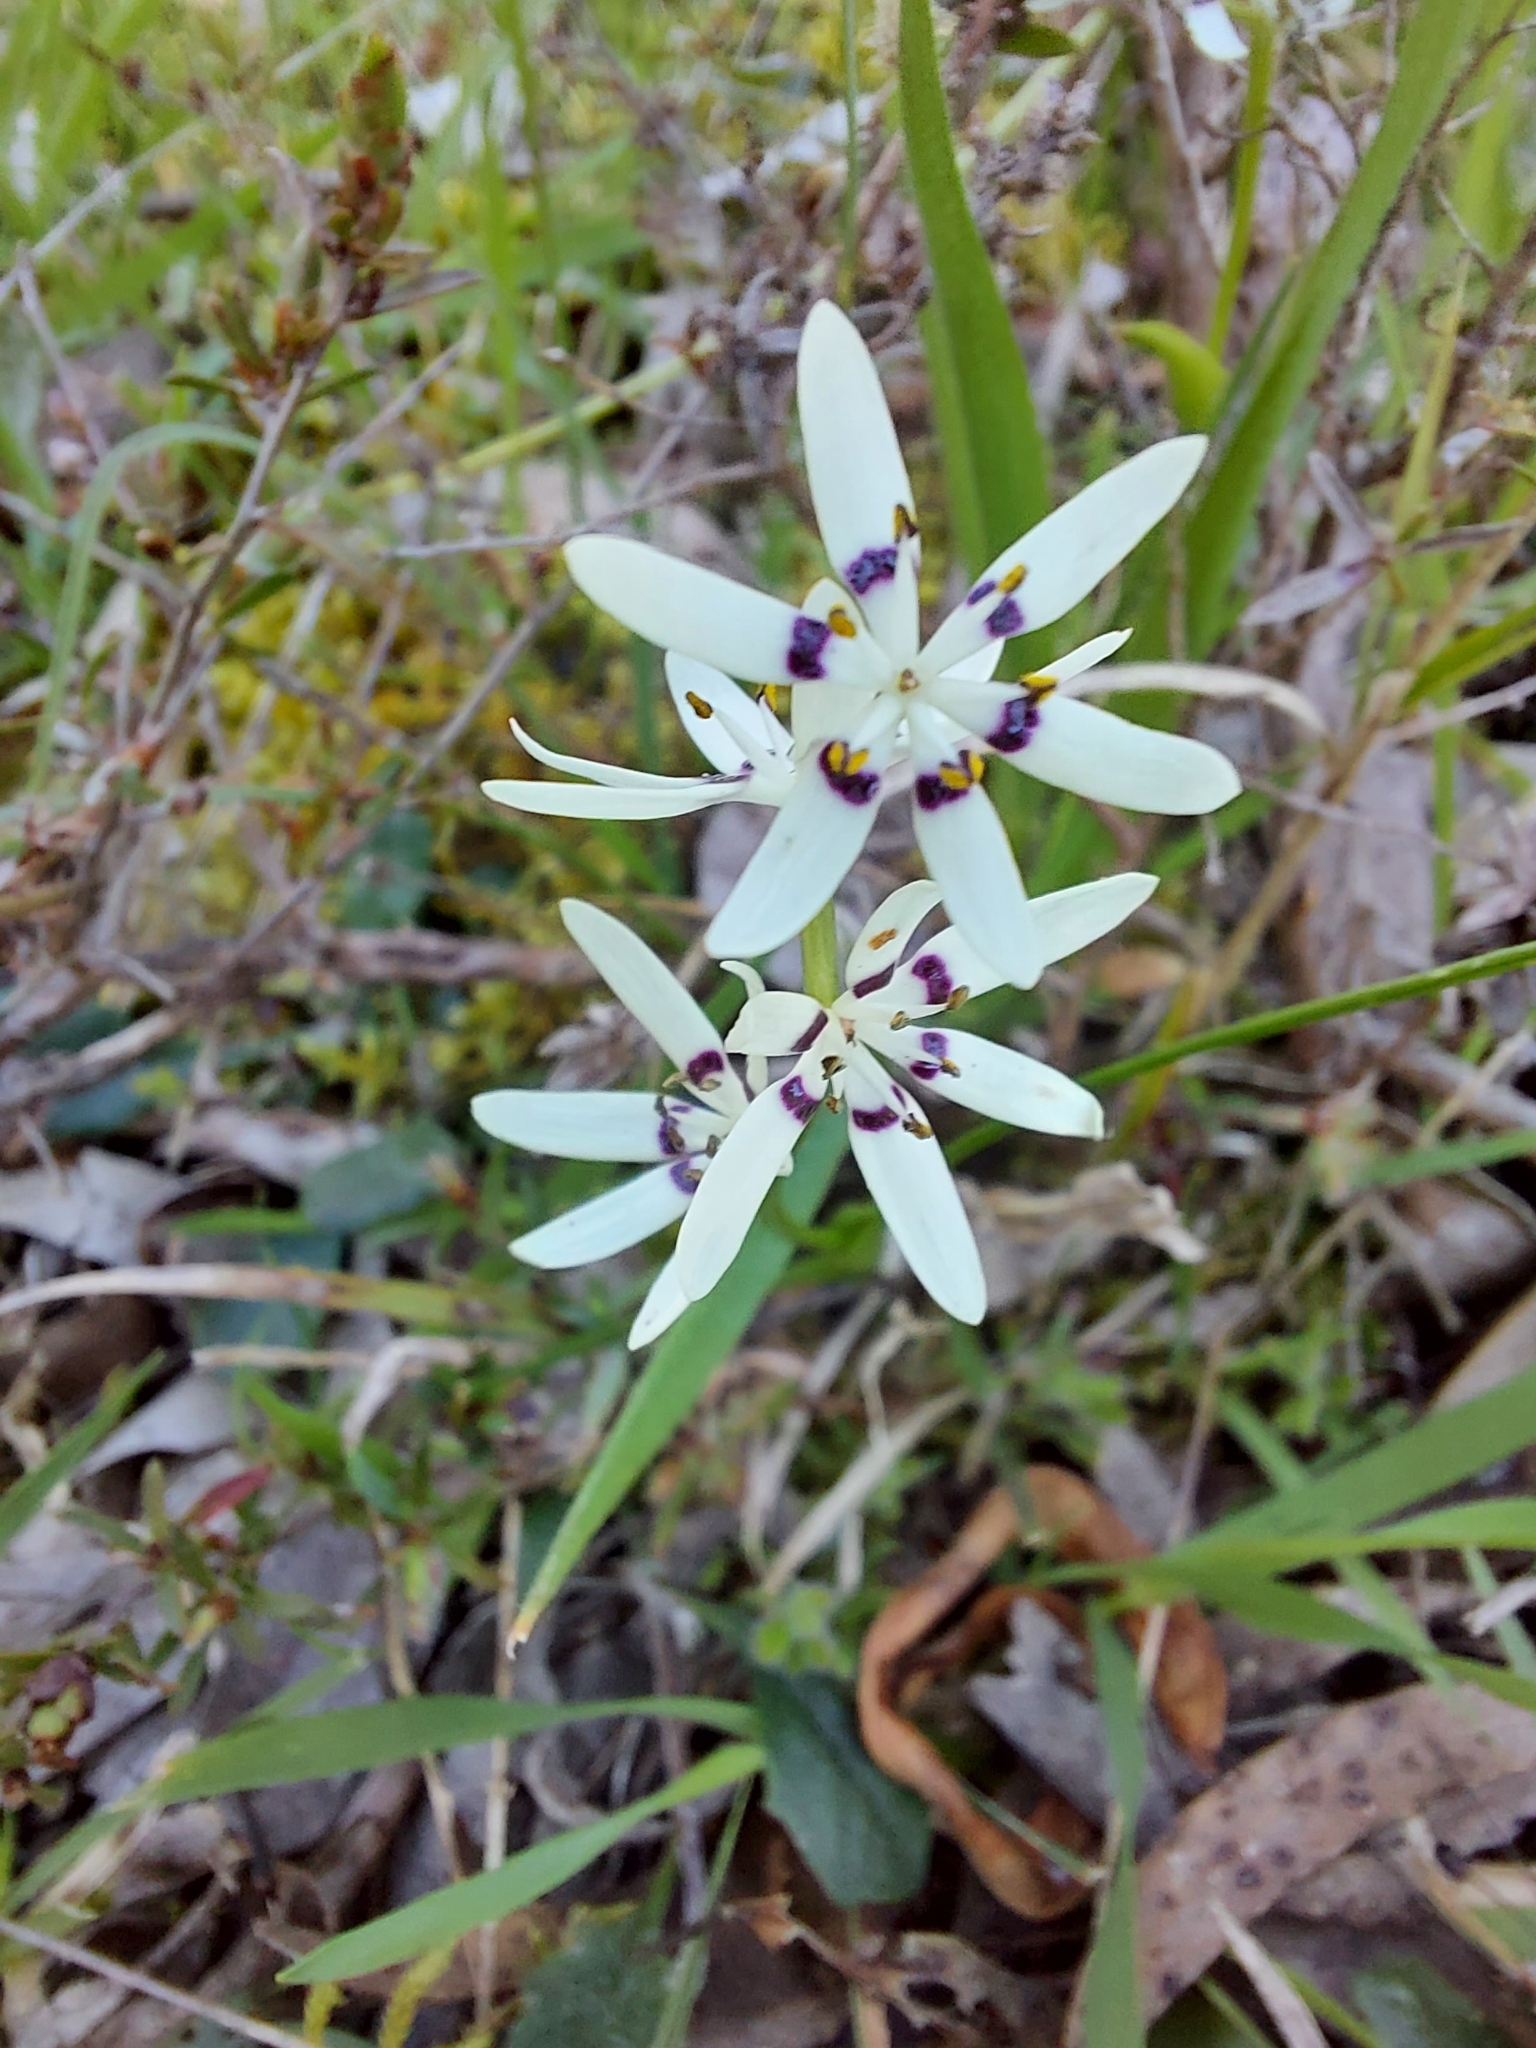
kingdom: Plantae
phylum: Tracheophyta
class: Liliopsida
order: Liliales
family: Colchicaceae
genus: Wurmbea
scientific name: Wurmbea dioica
